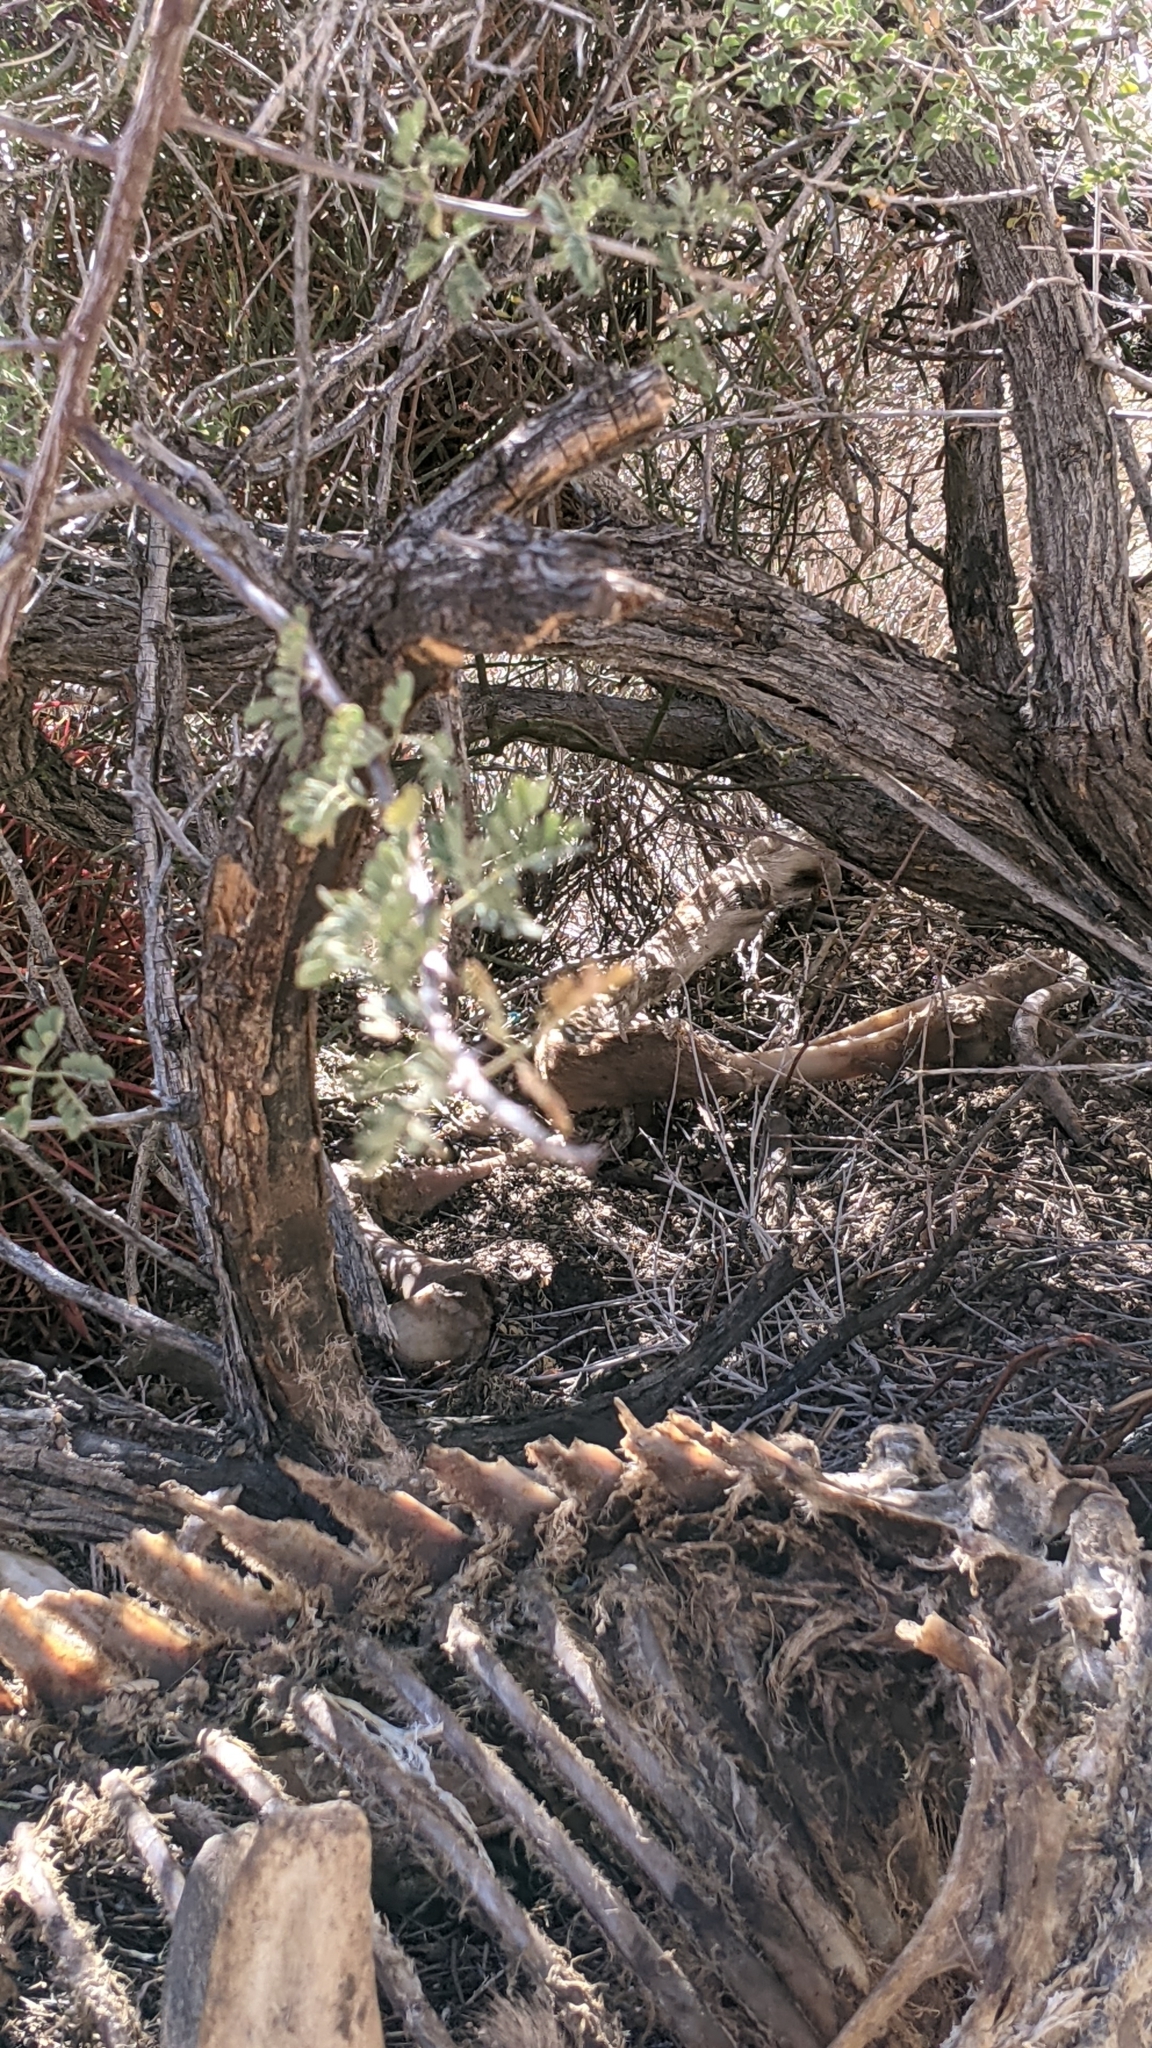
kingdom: Animalia
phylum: Chordata
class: Mammalia
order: Artiodactyla
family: Bovidae
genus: Ovis
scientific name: Ovis canadensis
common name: Bighorn sheep
